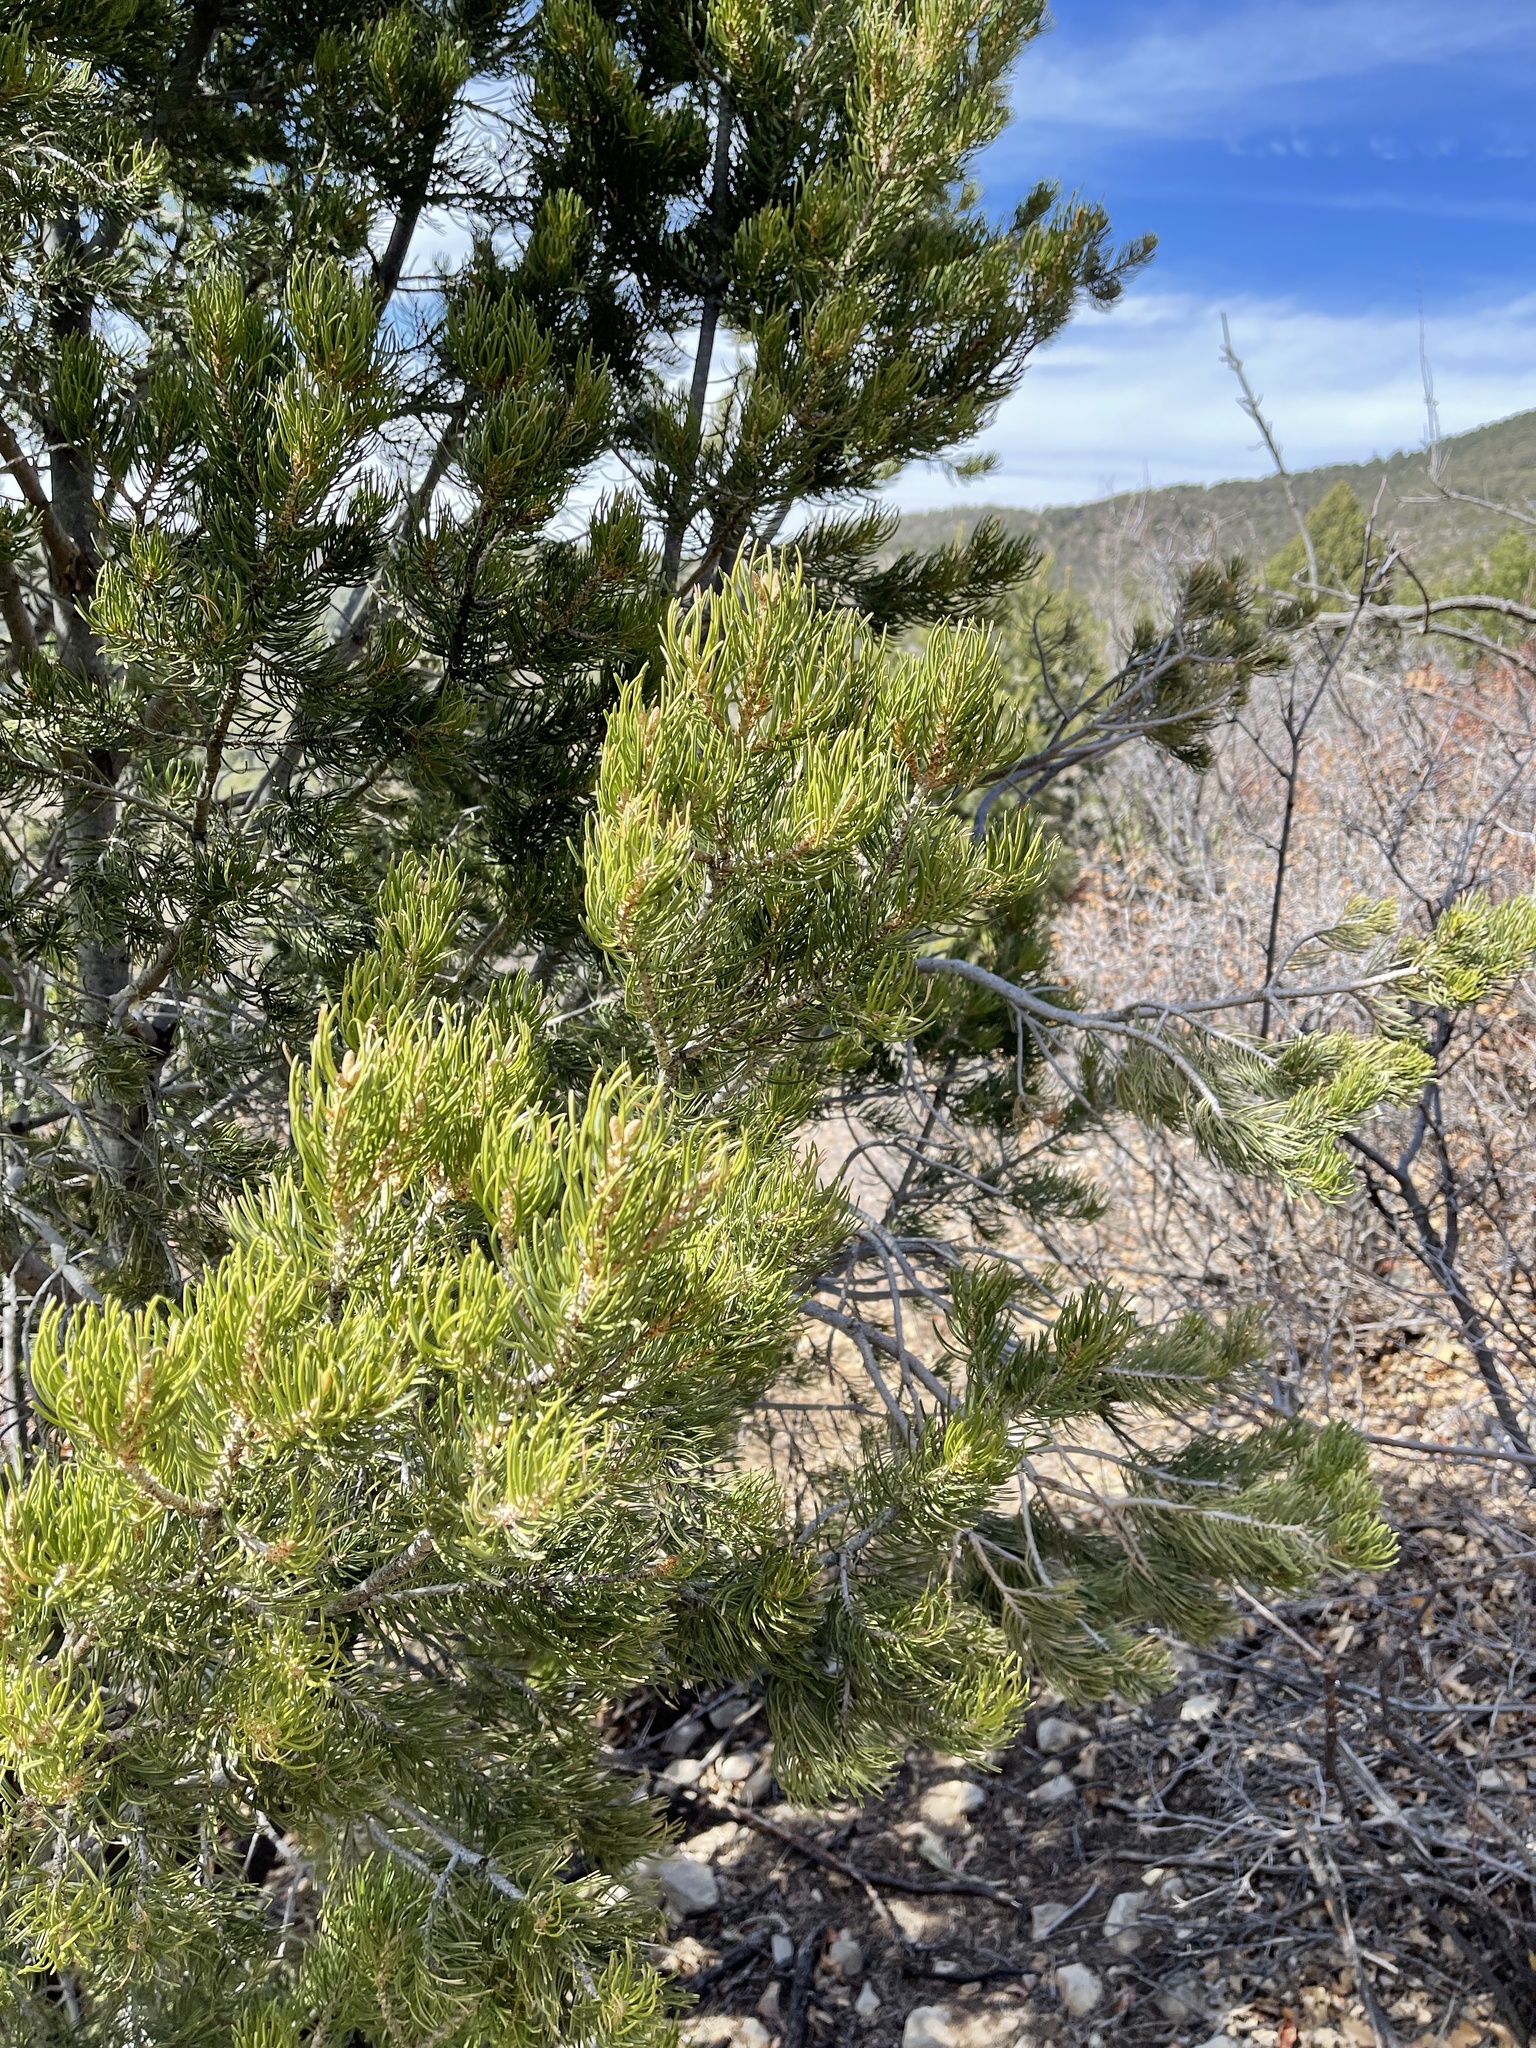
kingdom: Plantae
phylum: Tracheophyta
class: Pinopsida
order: Pinales
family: Pinaceae
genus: Pinus
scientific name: Pinus edulis
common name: Colorado pinyon
